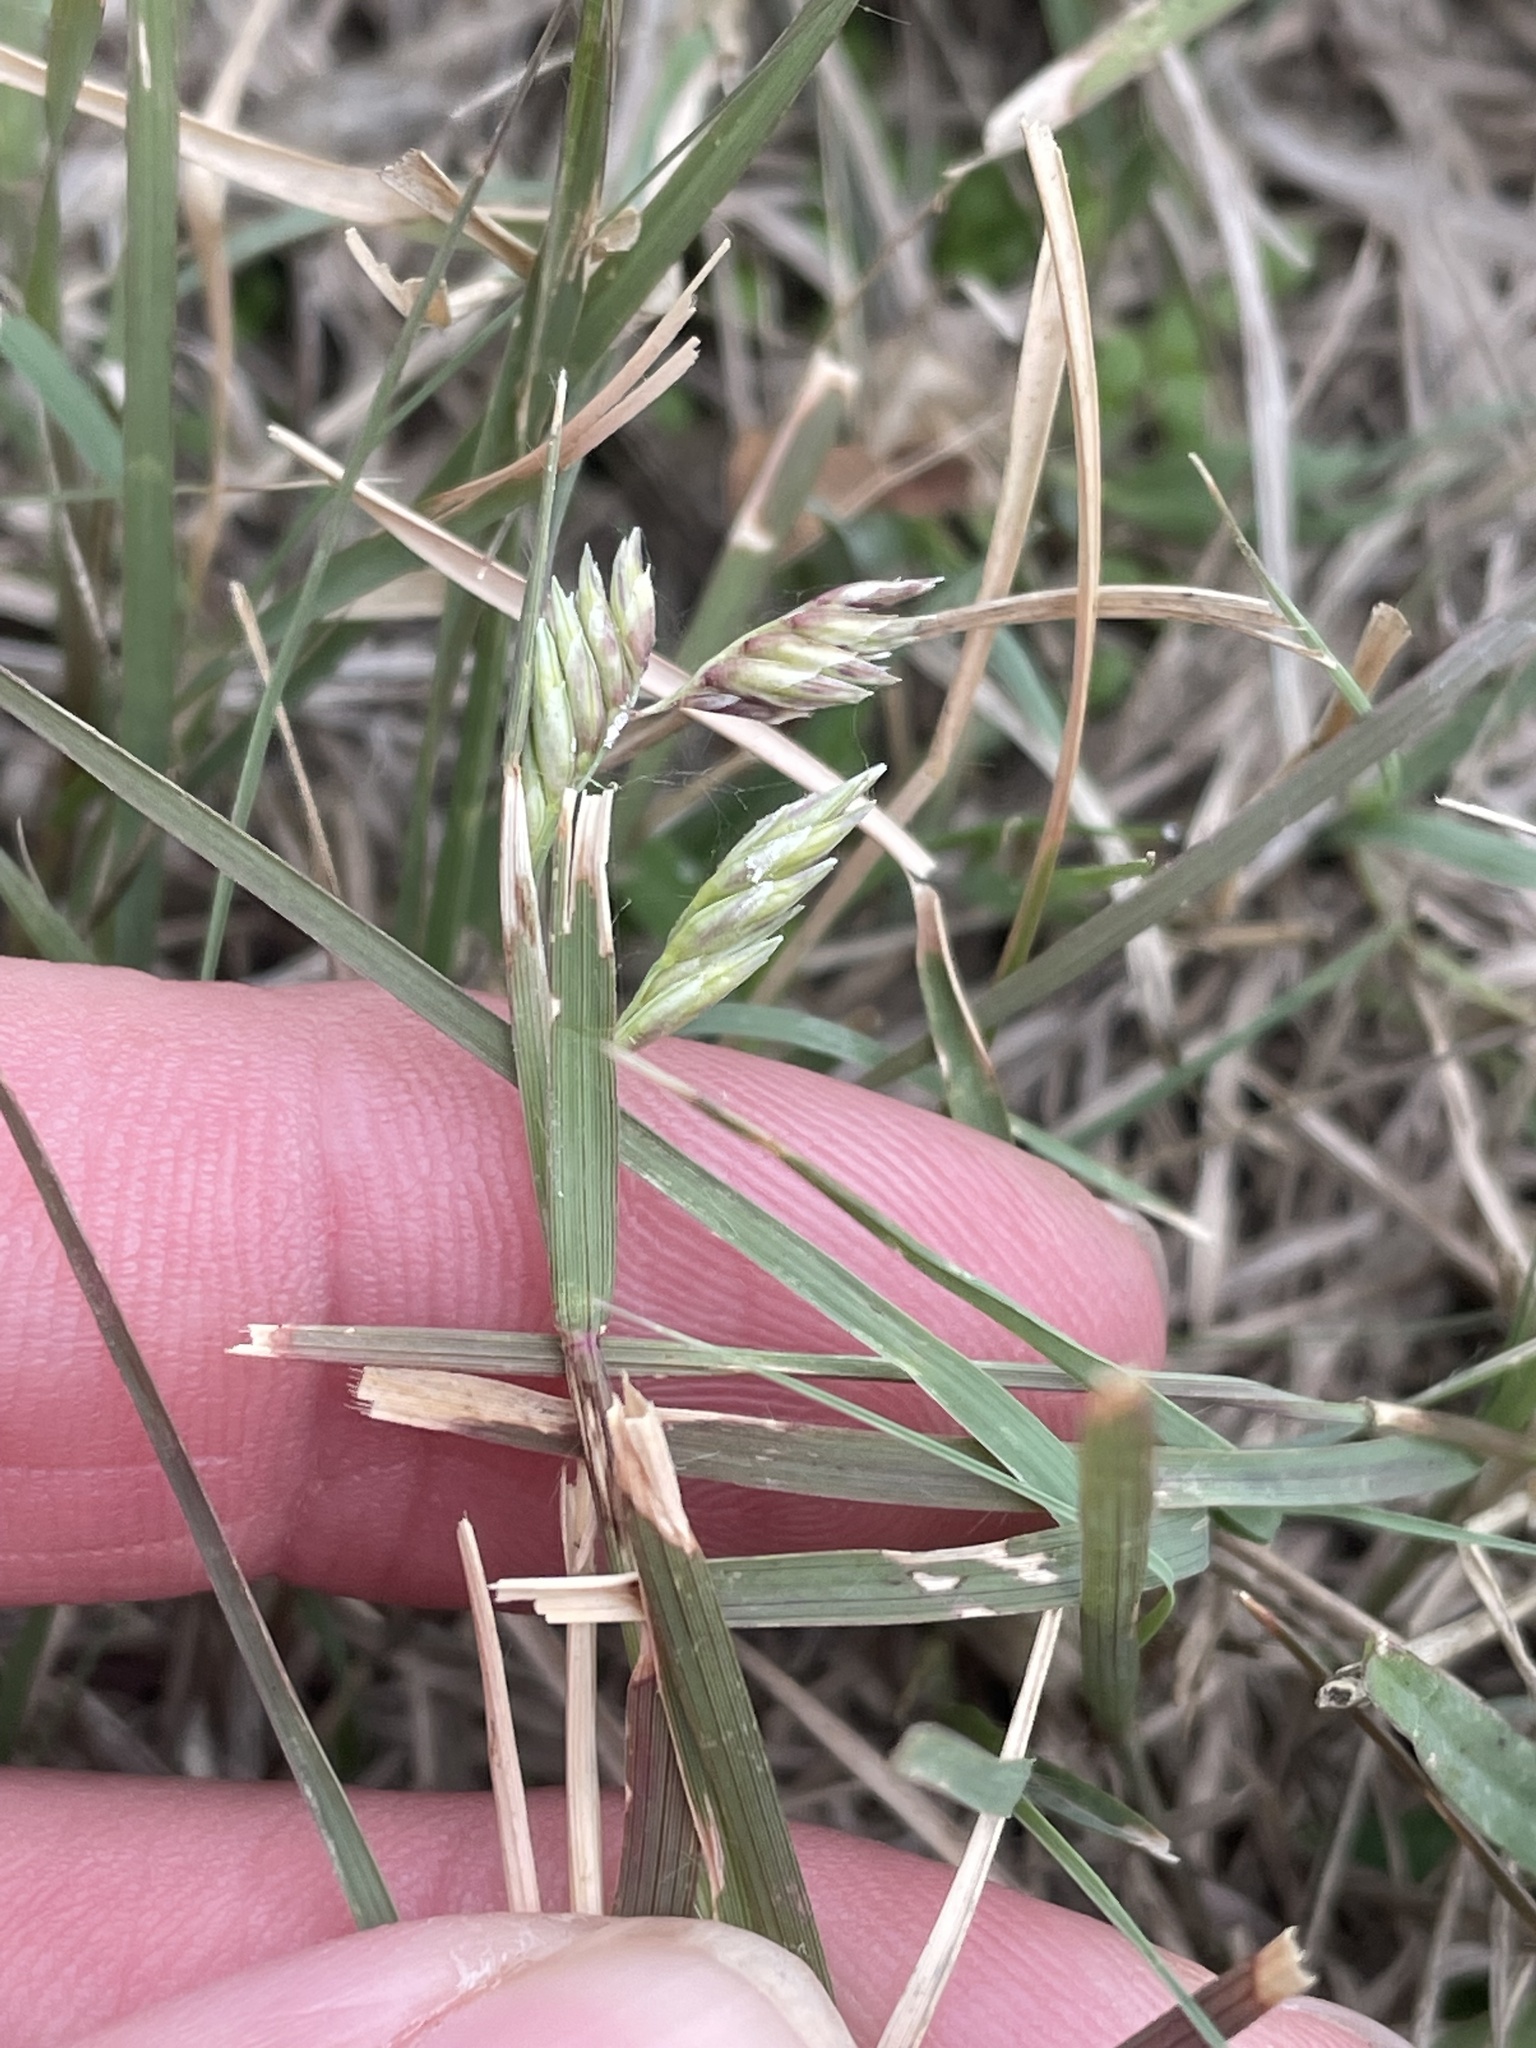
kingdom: Plantae
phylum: Tracheophyta
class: Liliopsida
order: Poales
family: Poaceae
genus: Bouteloua
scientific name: Bouteloua dactyloides
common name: Buffalo grass
